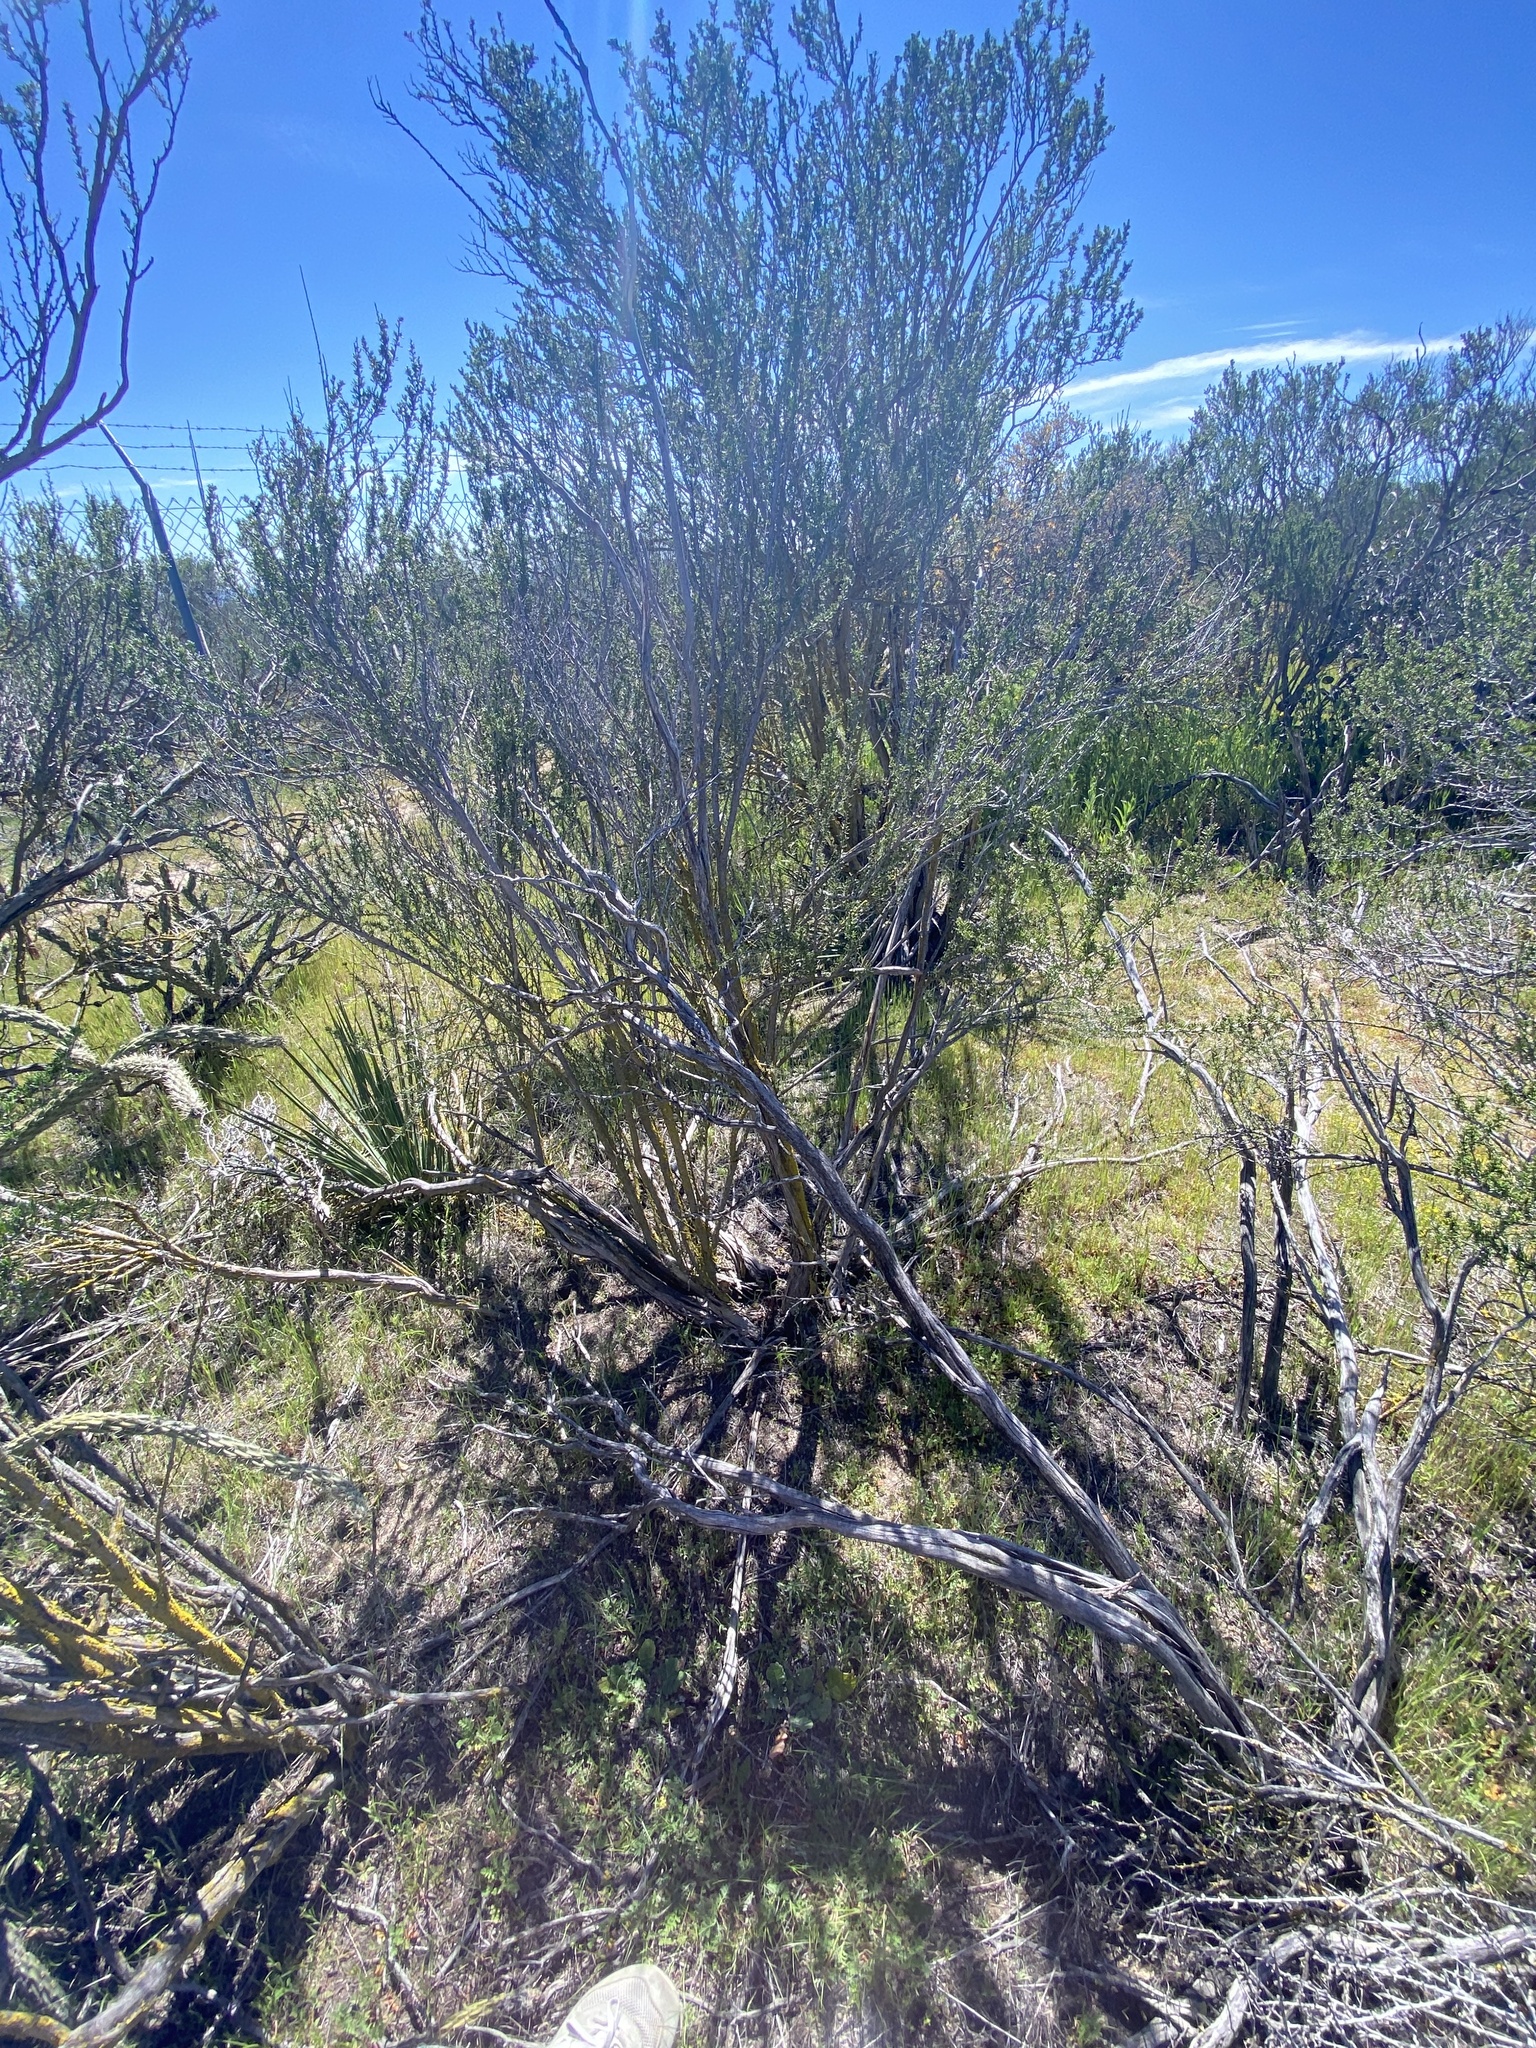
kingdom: Plantae
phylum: Tracheophyta
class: Magnoliopsida
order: Rosales
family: Rosaceae
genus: Adenostoma
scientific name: Adenostoma fasciculatum
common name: Chamise
